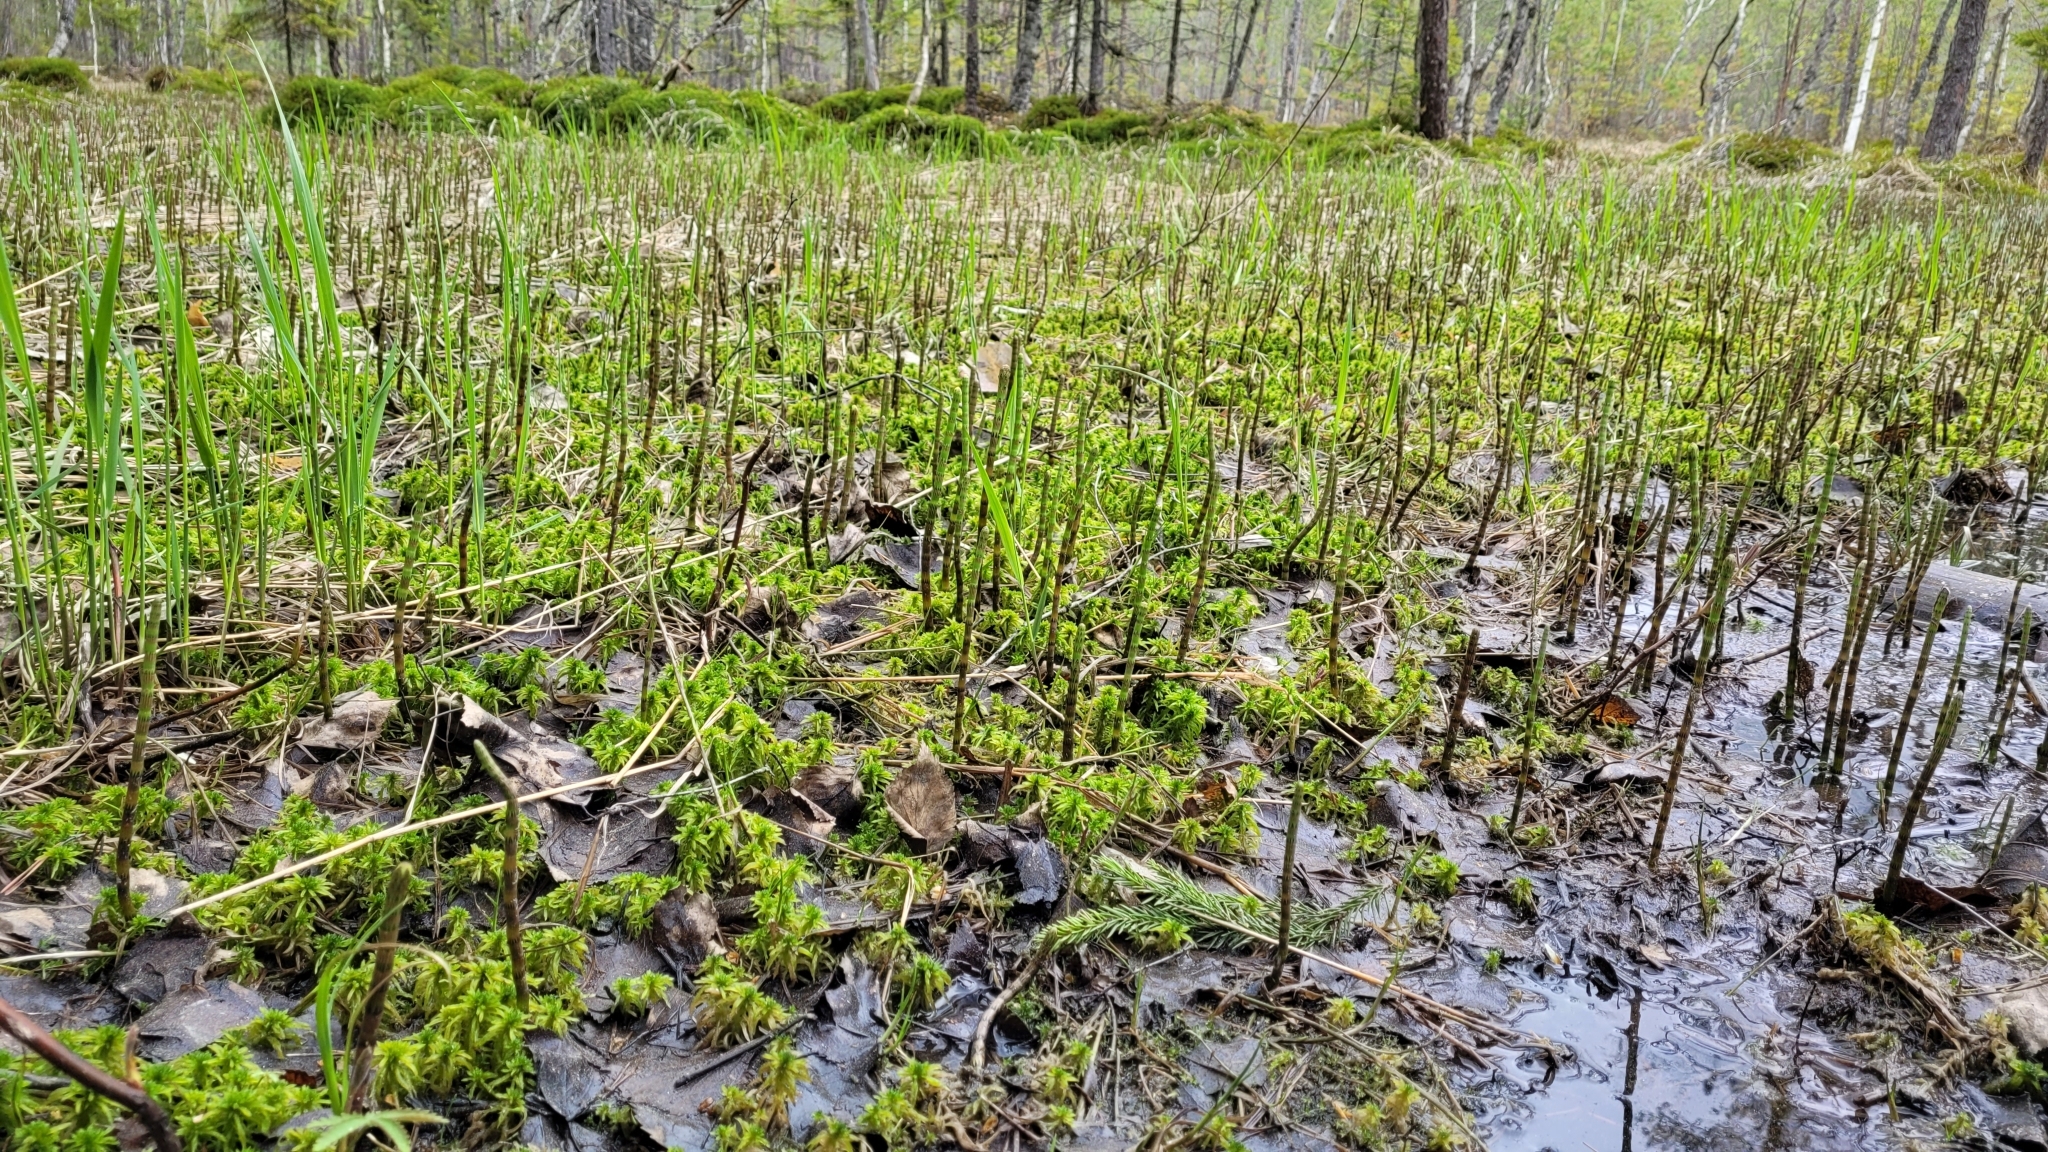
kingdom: Plantae
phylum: Tracheophyta
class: Polypodiopsida
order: Equisetales
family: Equisetaceae
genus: Equisetum
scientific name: Equisetum fluviatile
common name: Water horsetail
